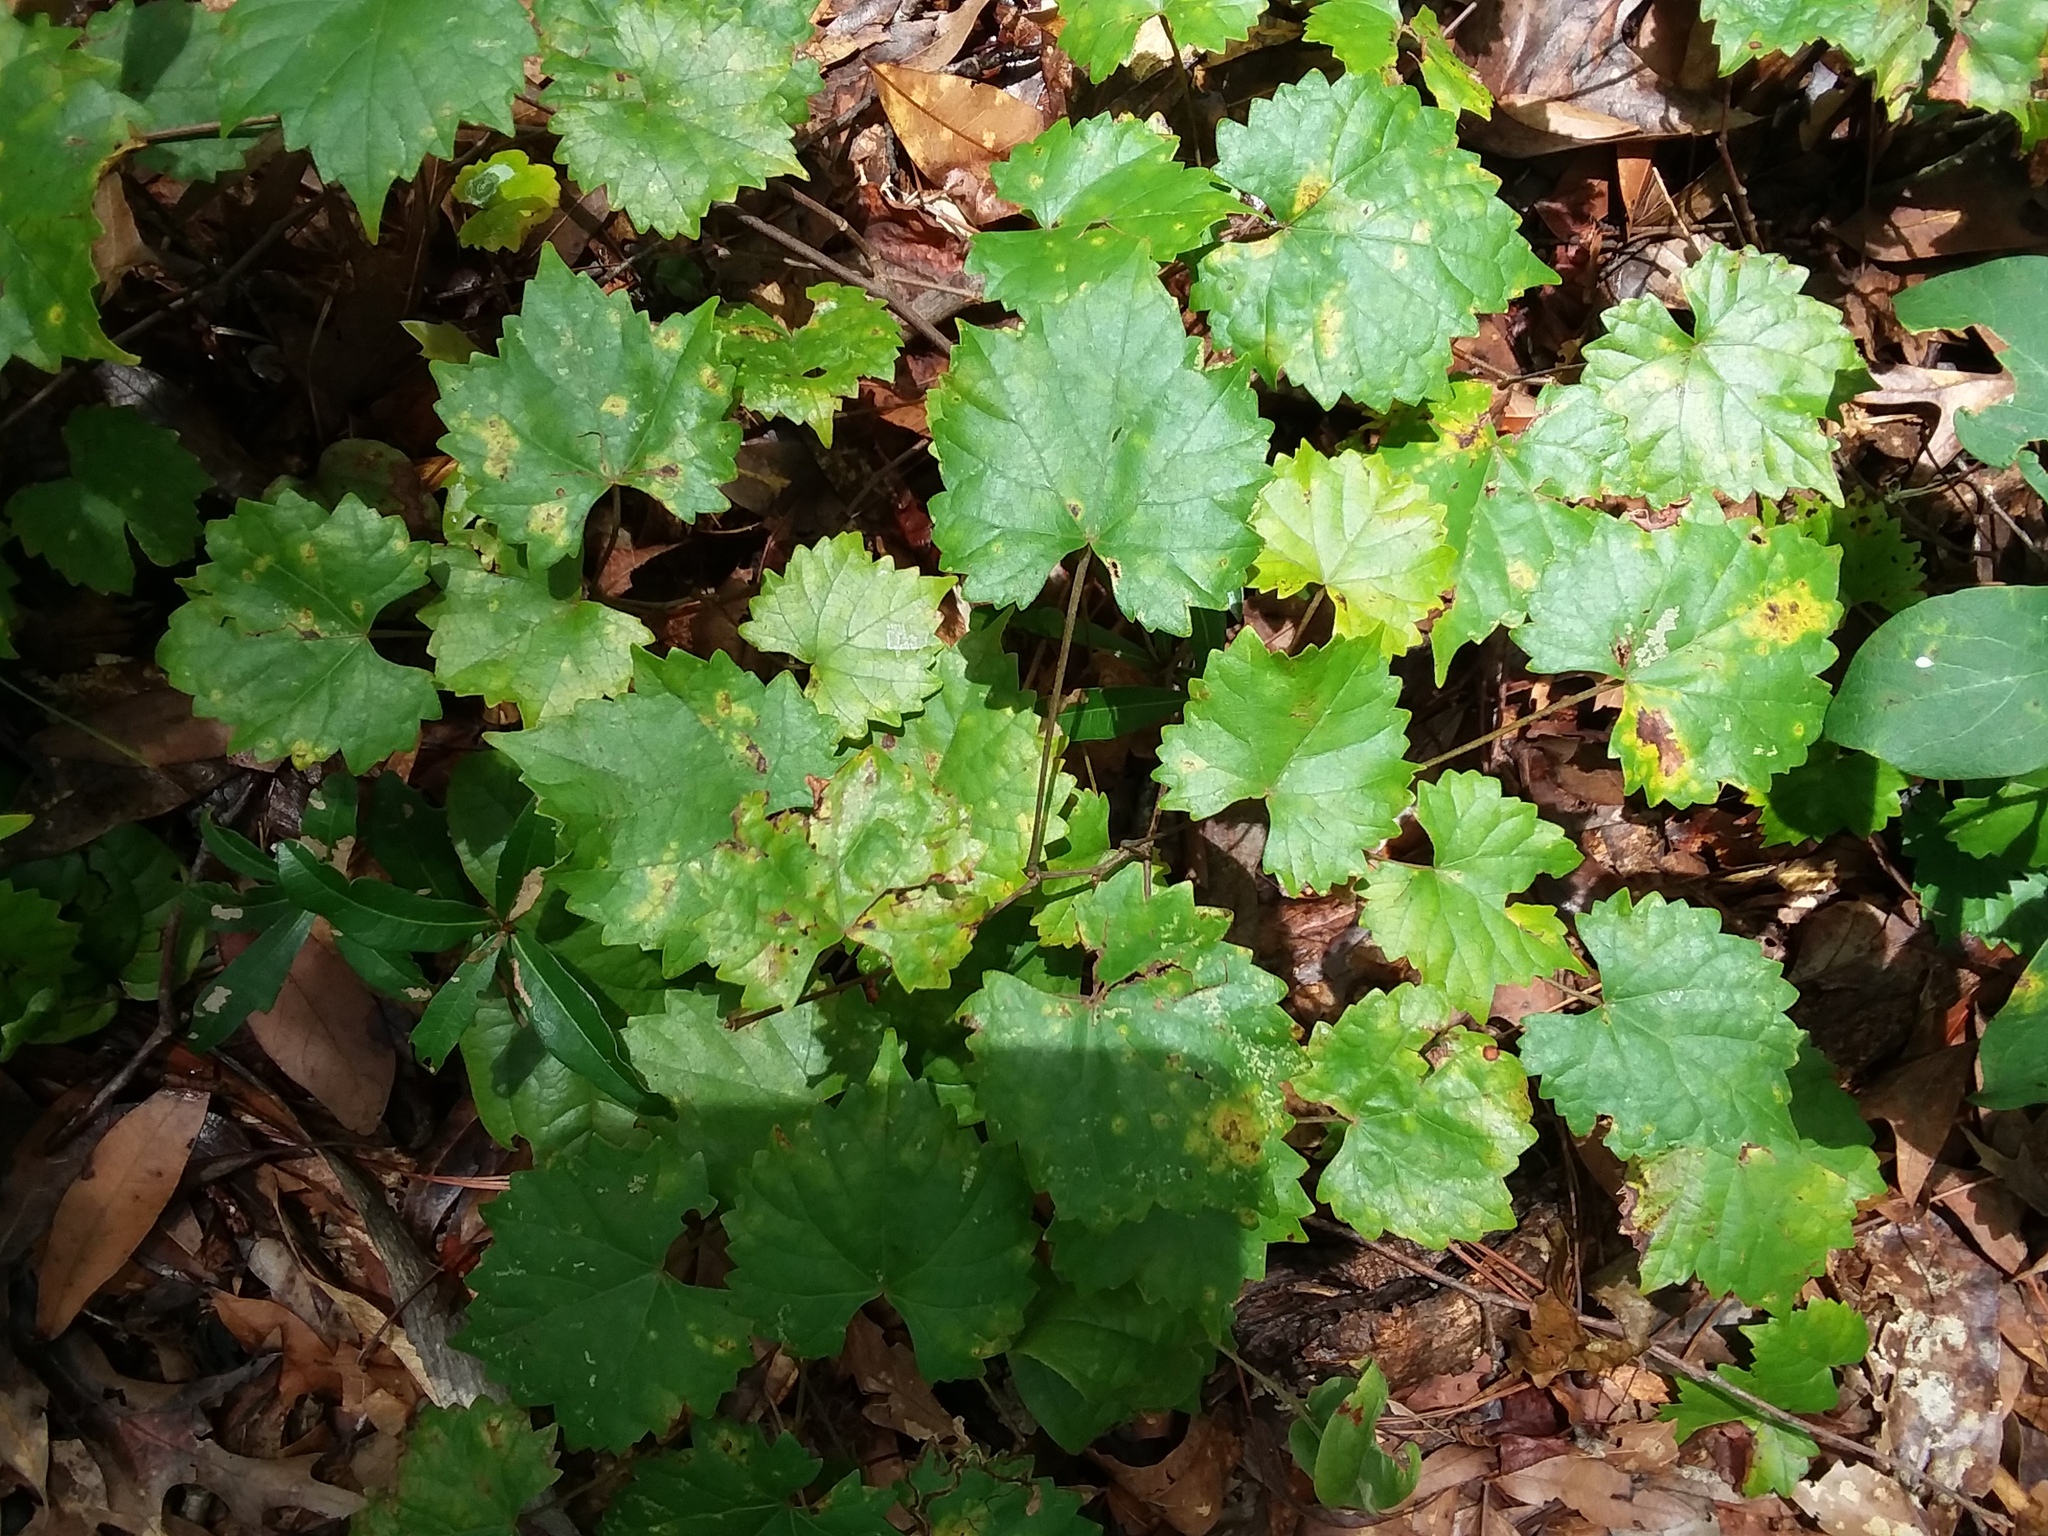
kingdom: Plantae
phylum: Tracheophyta
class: Magnoliopsida
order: Vitales
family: Vitaceae
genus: Vitis
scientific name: Vitis rotundifolia
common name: Muscadine grape
